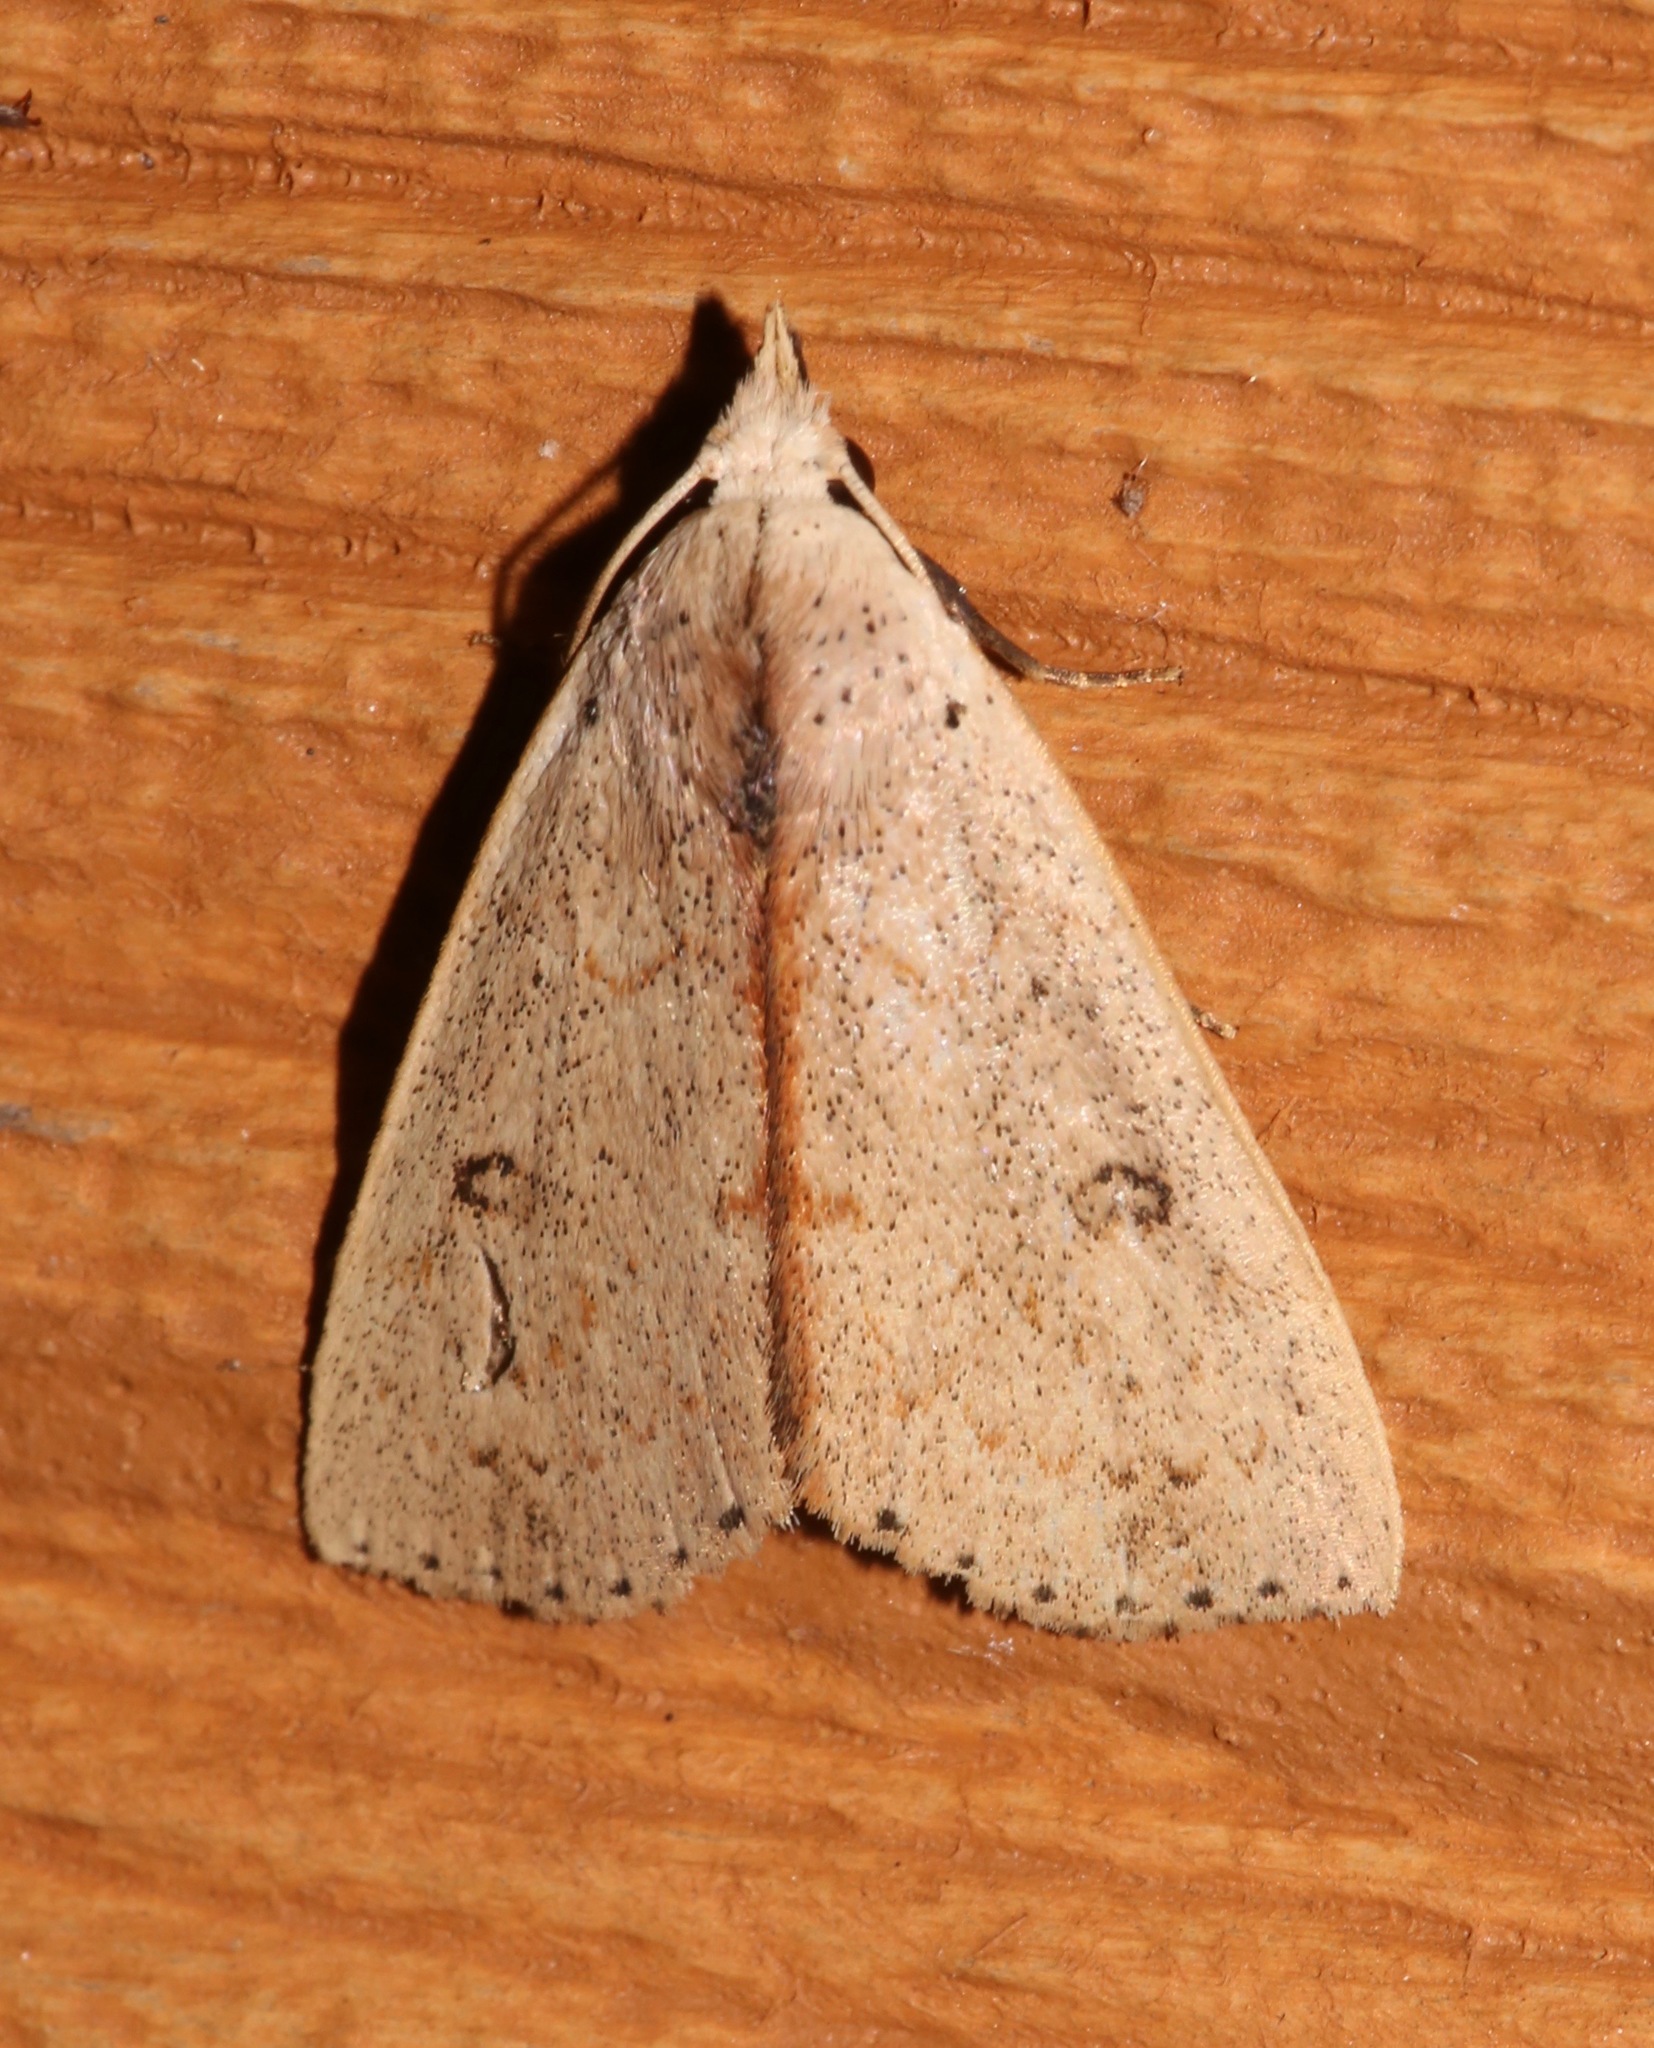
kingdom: Animalia
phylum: Arthropoda
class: Insecta
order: Lepidoptera
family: Erebidae
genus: Scolecocampa
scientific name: Scolecocampa liburna
